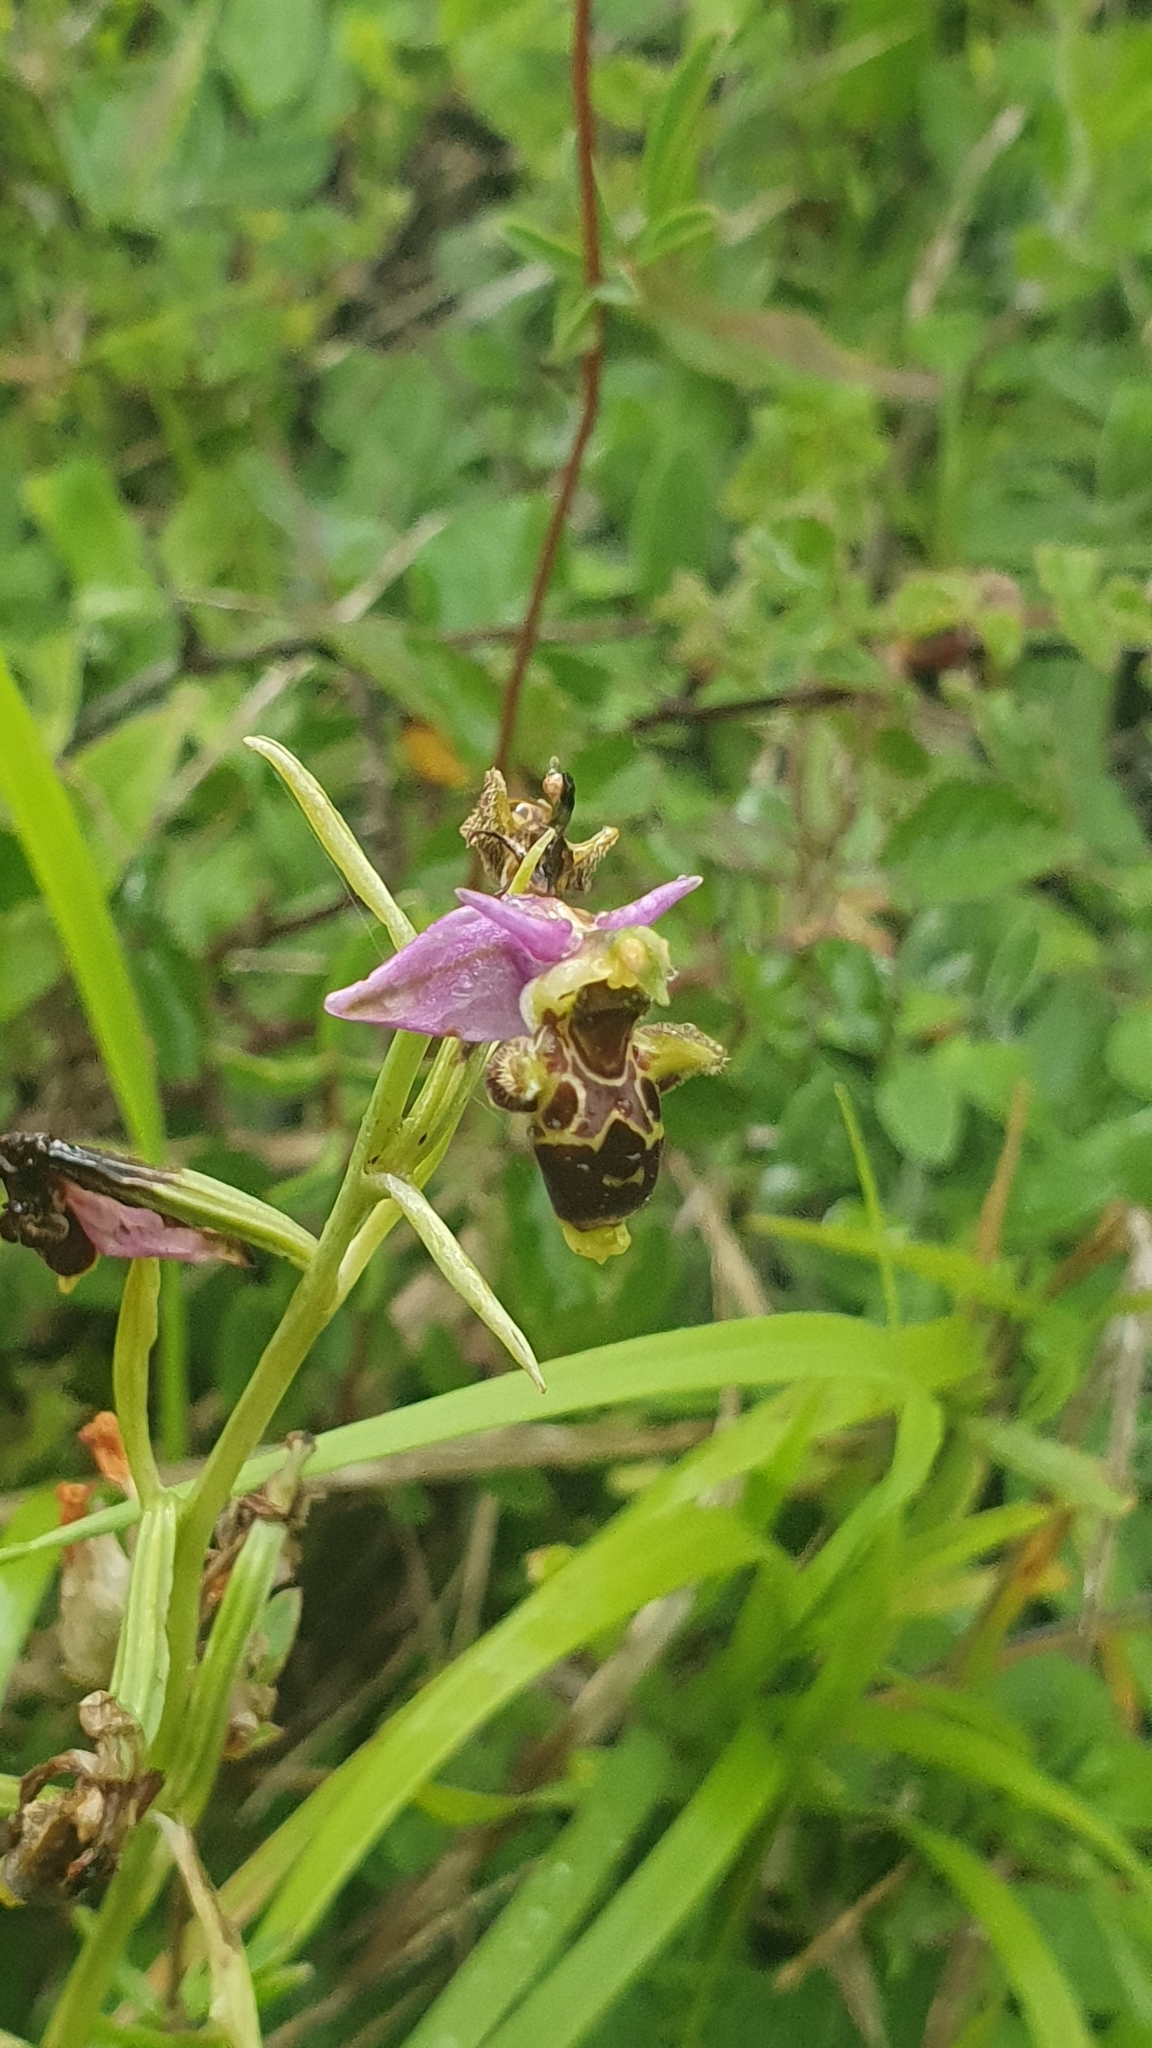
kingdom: Plantae
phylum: Tracheophyta
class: Liliopsida
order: Asparagales
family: Orchidaceae
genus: Ophrys
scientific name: Ophrys scolopax
